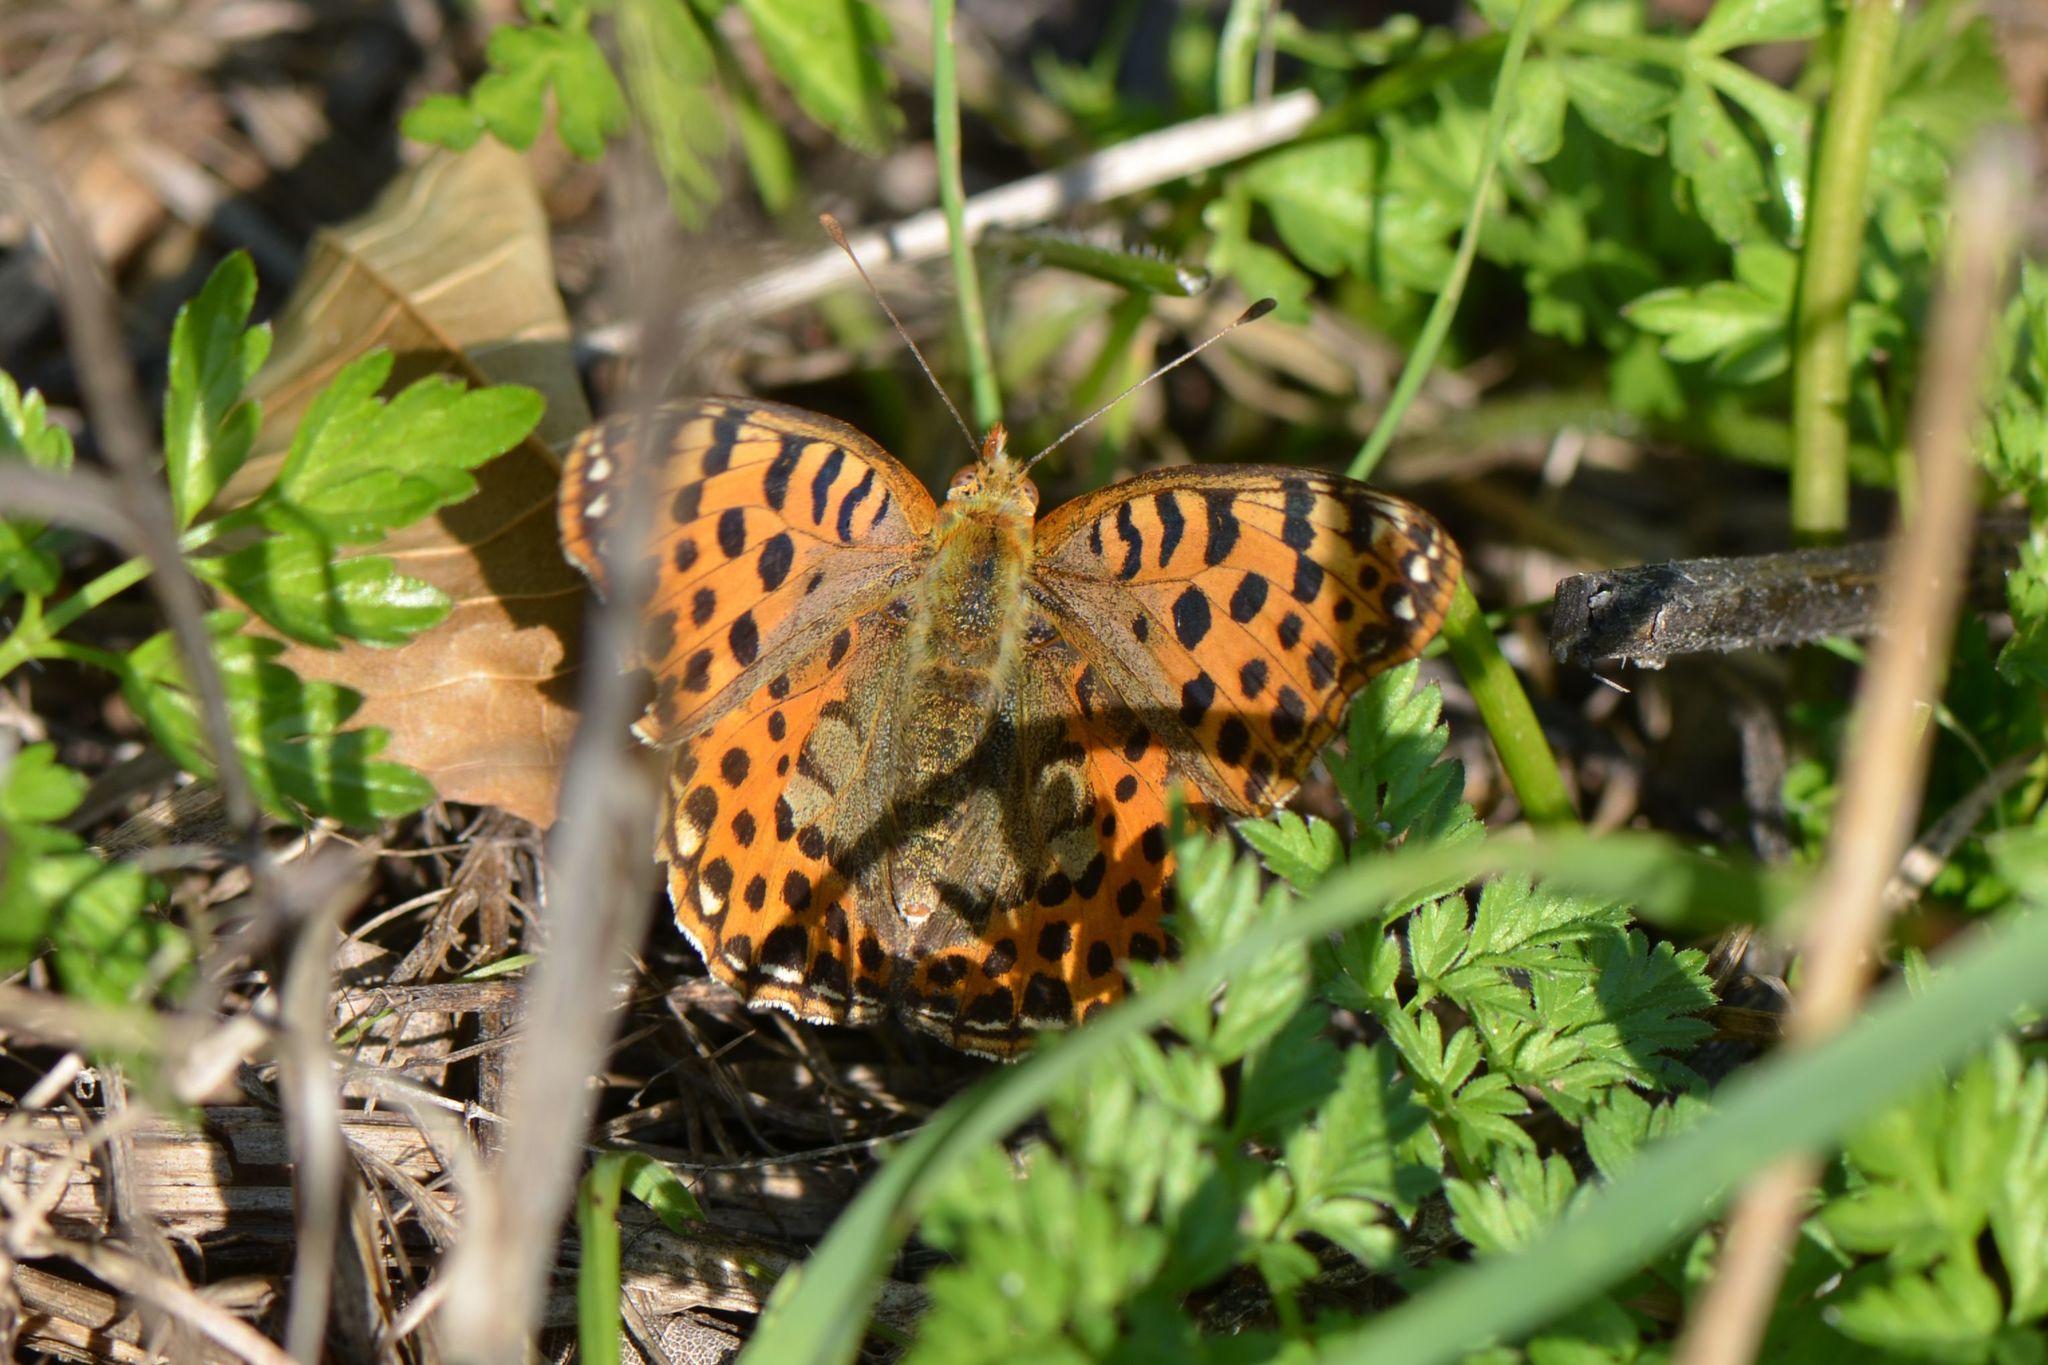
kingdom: Animalia
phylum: Arthropoda
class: Insecta
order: Lepidoptera
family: Nymphalidae
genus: Issoria
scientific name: Issoria lathonia
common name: Queen of spain fritillary
